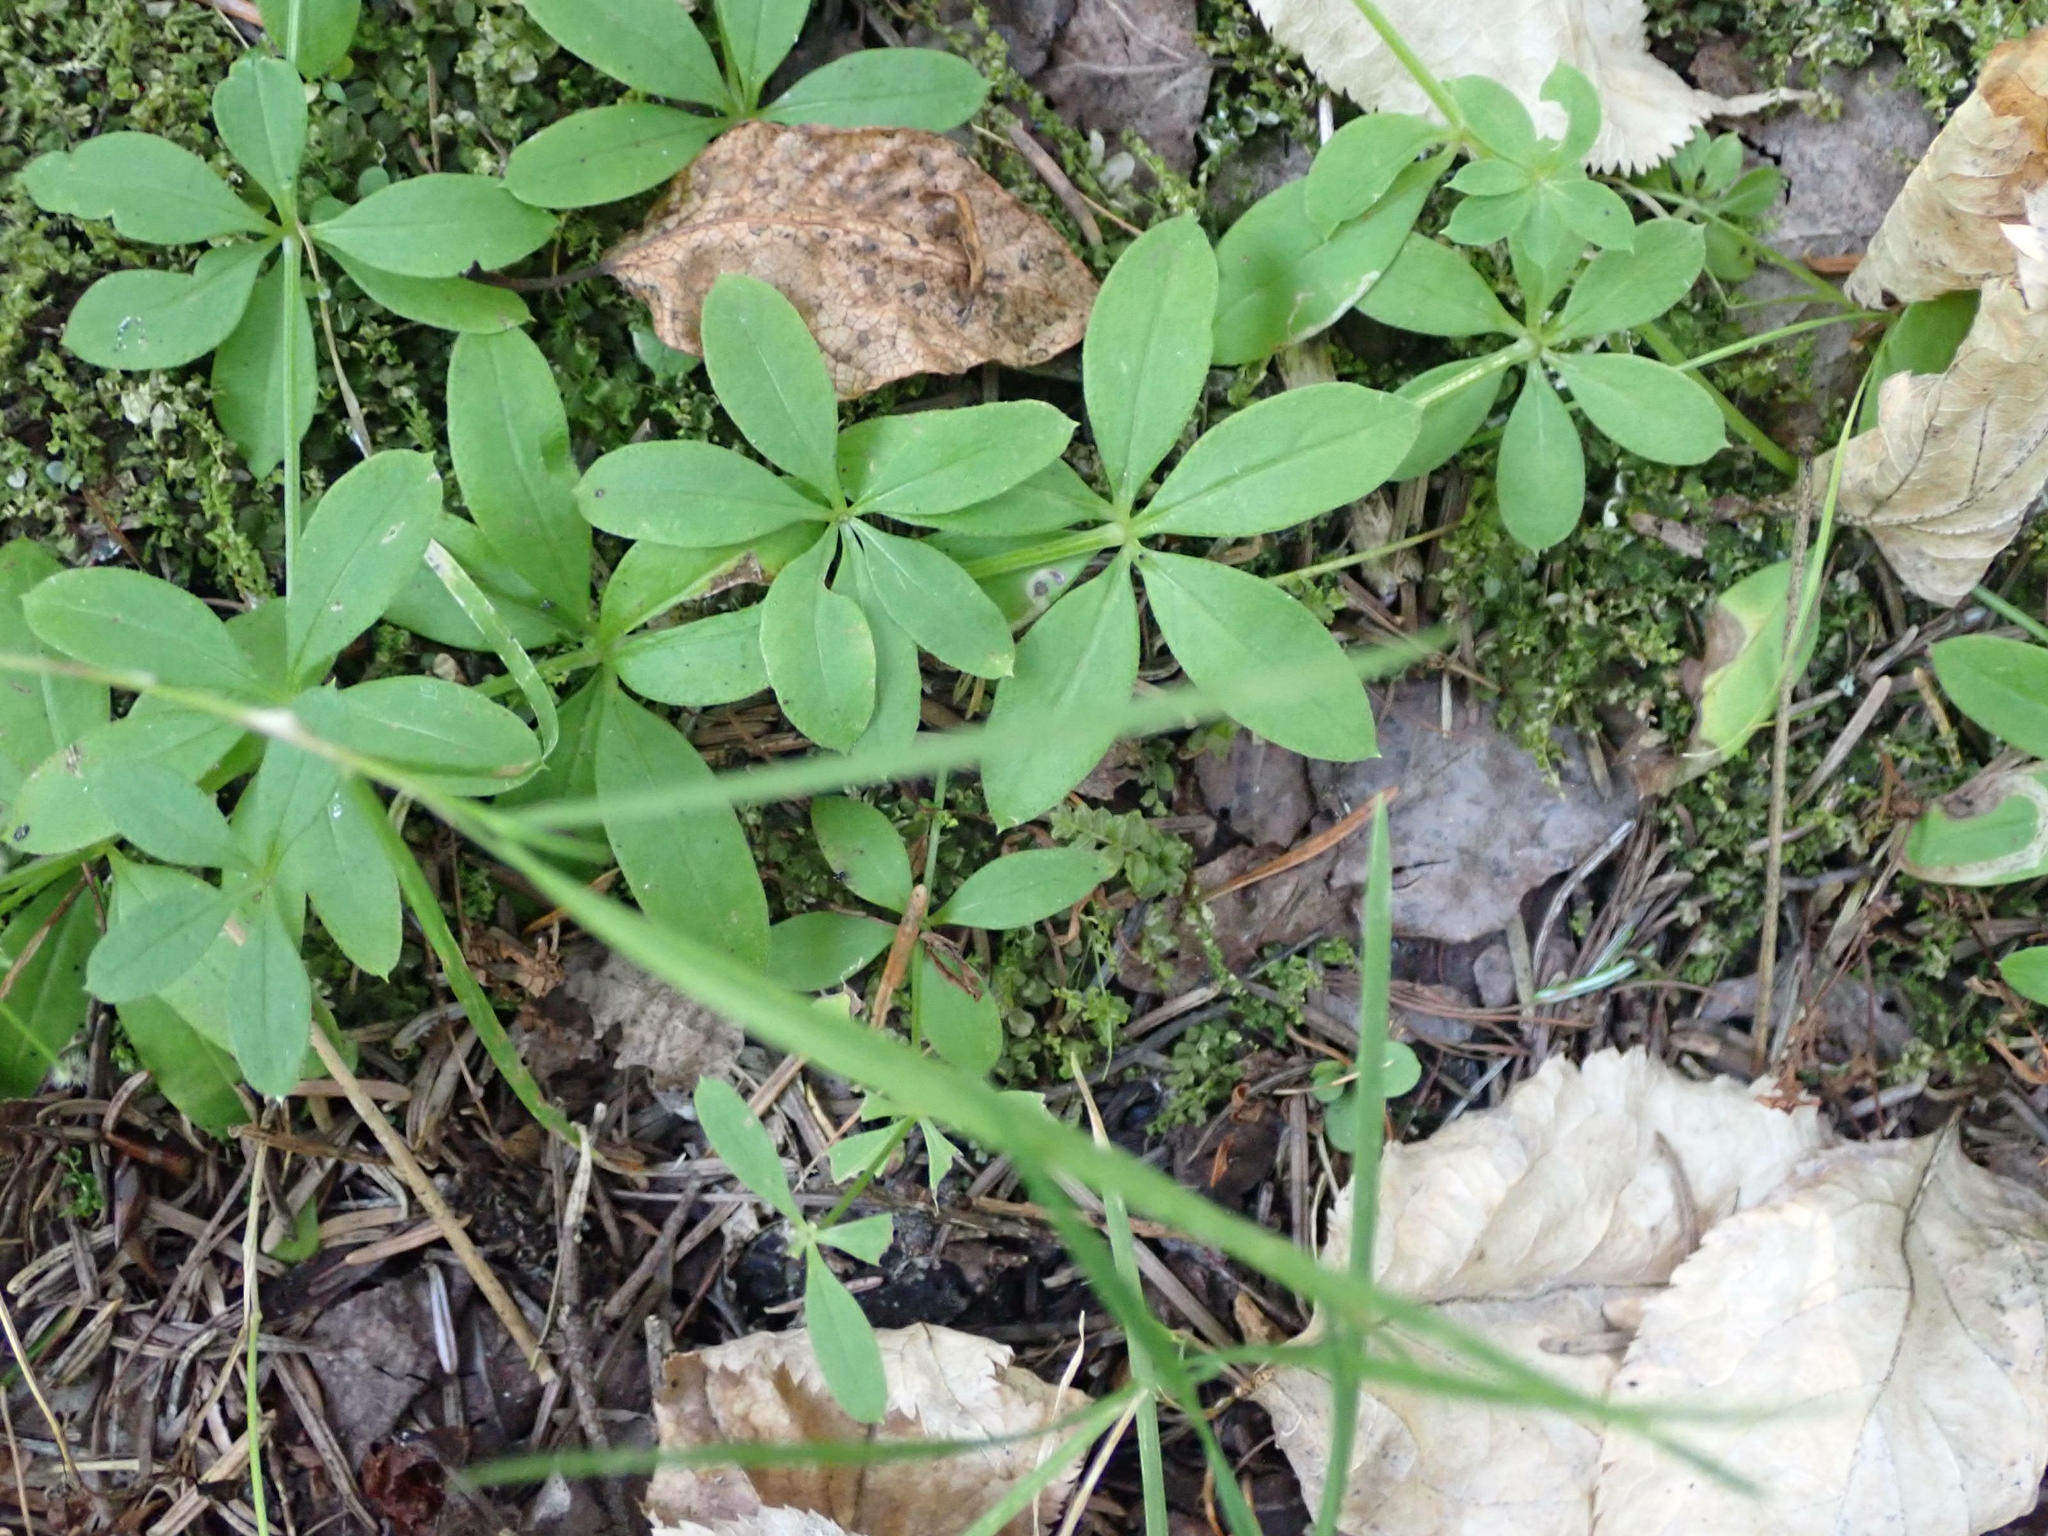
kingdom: Plantae
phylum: Tracheophyta
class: Magnoliopsida
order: Gentianales
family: Rubiaceae
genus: Galium
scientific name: Galium triflorum
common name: Fragrant bedstraw
